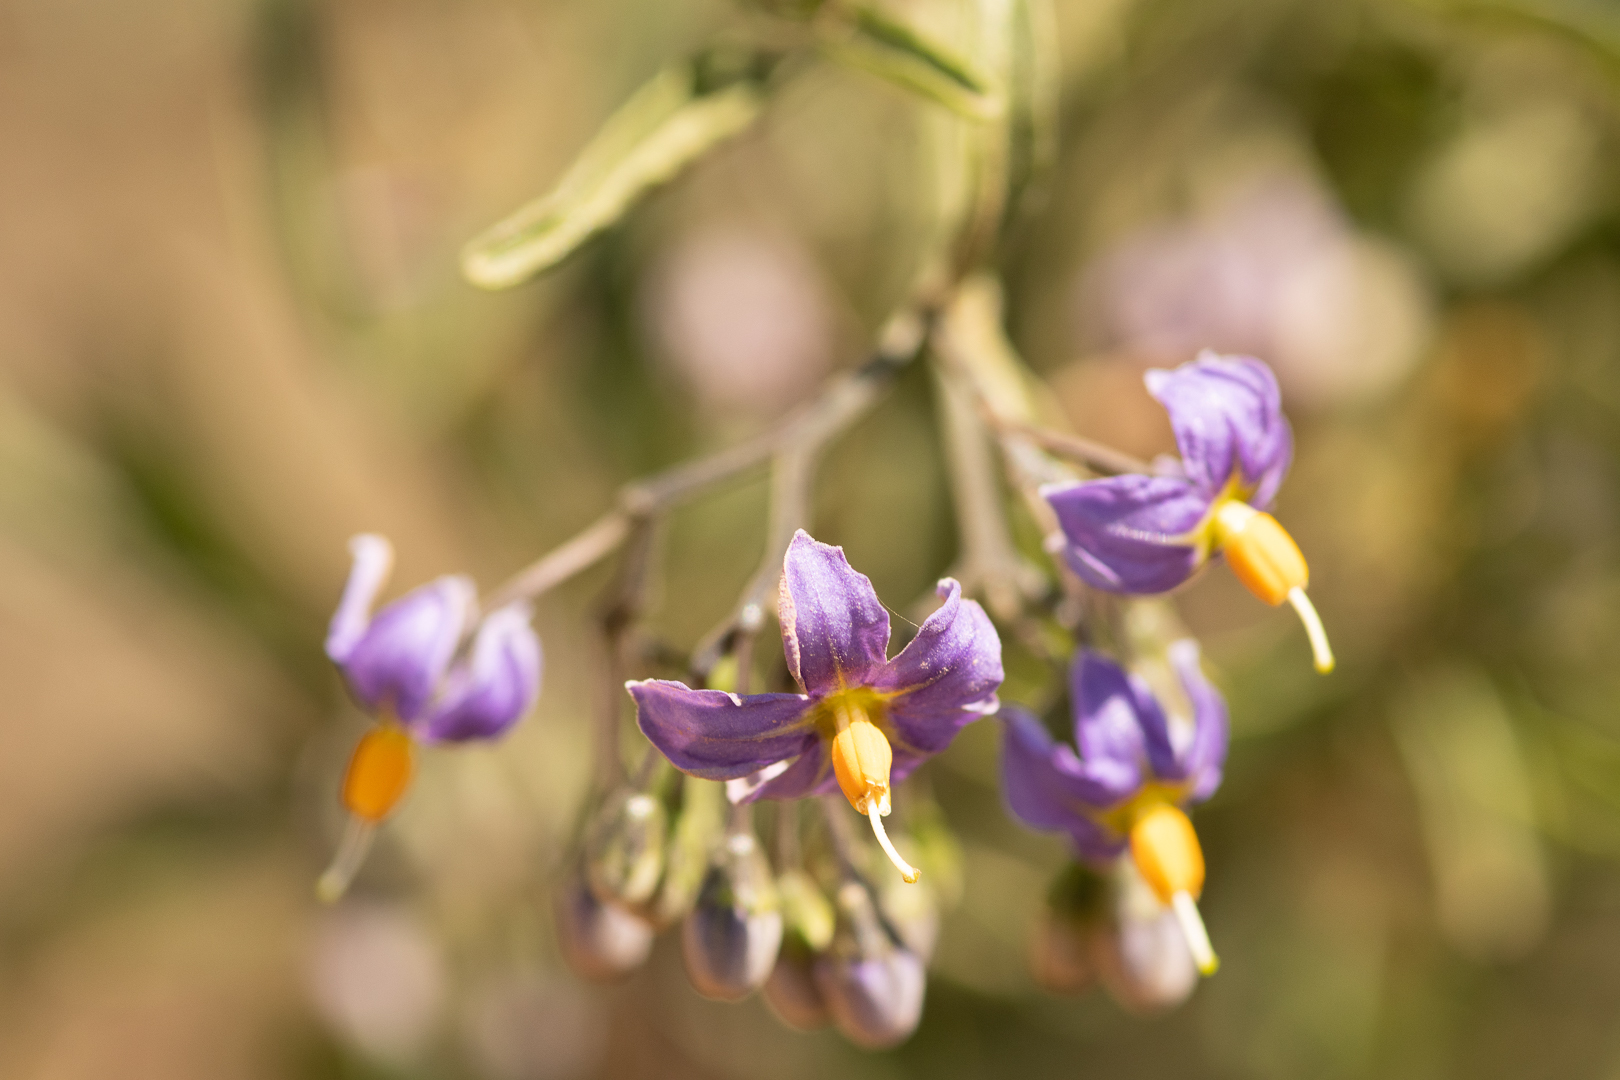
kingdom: Plantae
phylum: Tracheophyta
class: Magnoliopsida
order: Solanales
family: Solanaceae
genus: Solanum
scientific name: Solanum crispum
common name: Chilean nightshade
